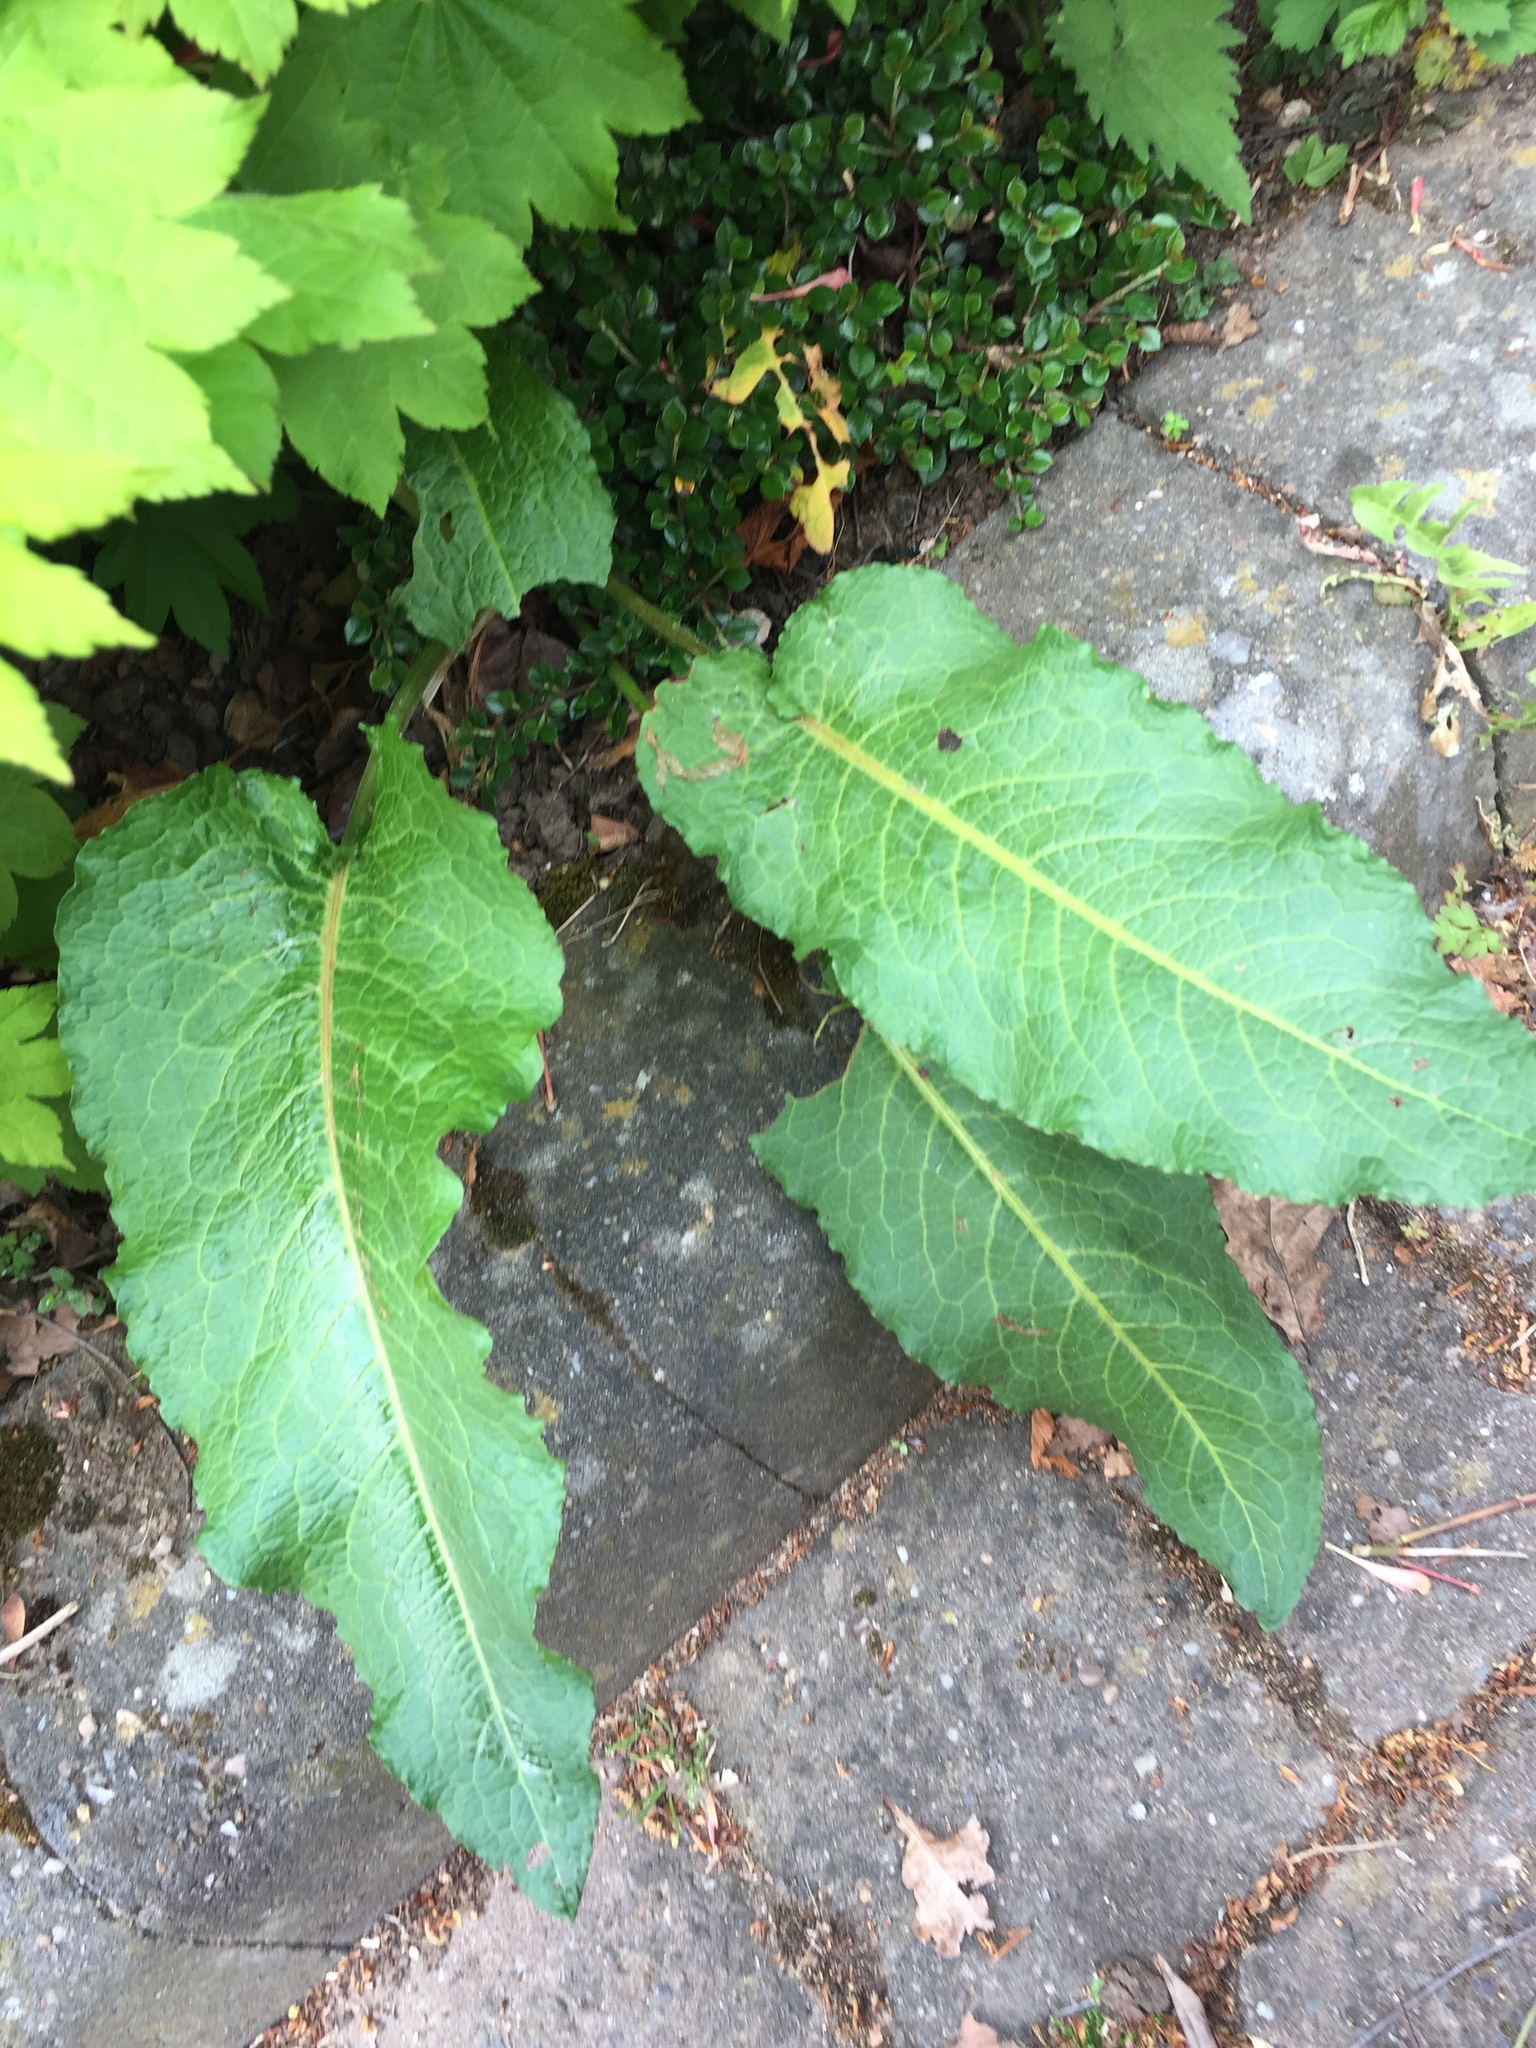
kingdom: Plantae
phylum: Tracheophyta
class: Magnoliopsida
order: Caryophyllales
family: Polygonaceae
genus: Rumex
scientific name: Rumex obtusifolius
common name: Bitter dock
